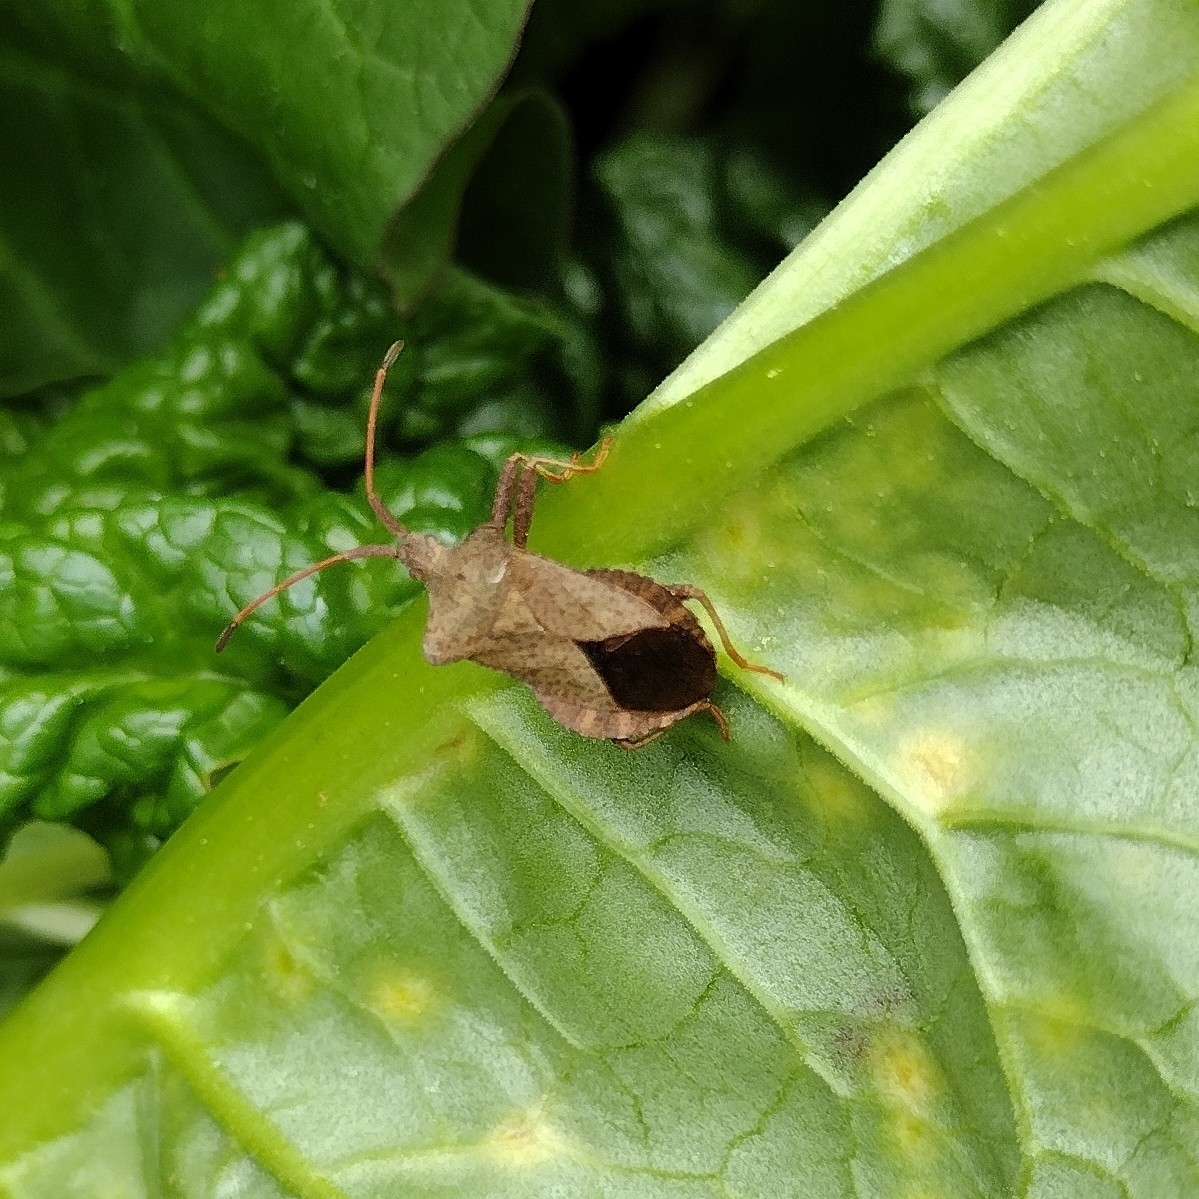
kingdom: Animalia
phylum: Arthropoda
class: Insecta
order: Hemiptera
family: Coreidae
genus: Coreus
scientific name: Coreus marginatus
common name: Dock bug
